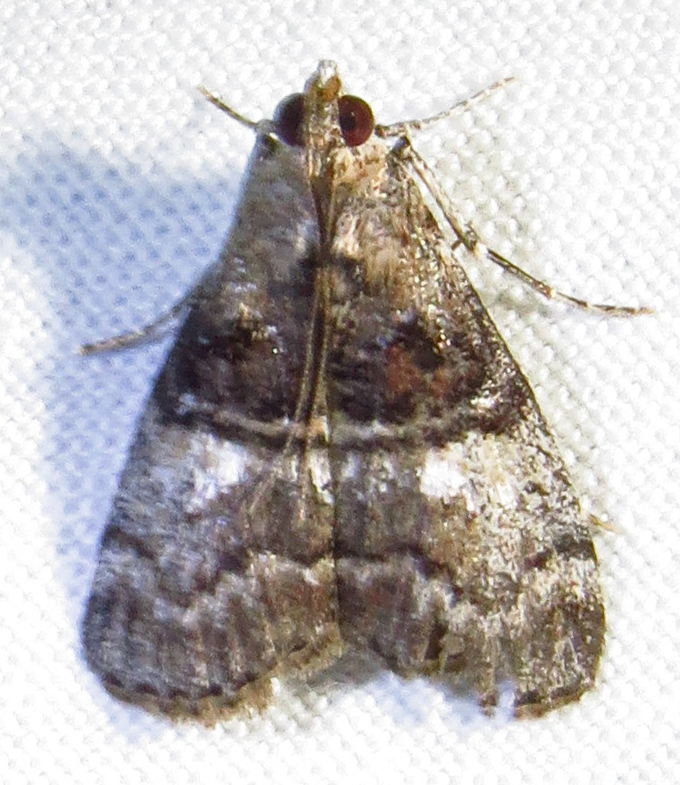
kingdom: Animalia
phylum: Arthropoda
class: Insecta
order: Lepidoptera
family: Pyralidae
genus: Pococera
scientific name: Pococera asperatella
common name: Maple webworm moth
